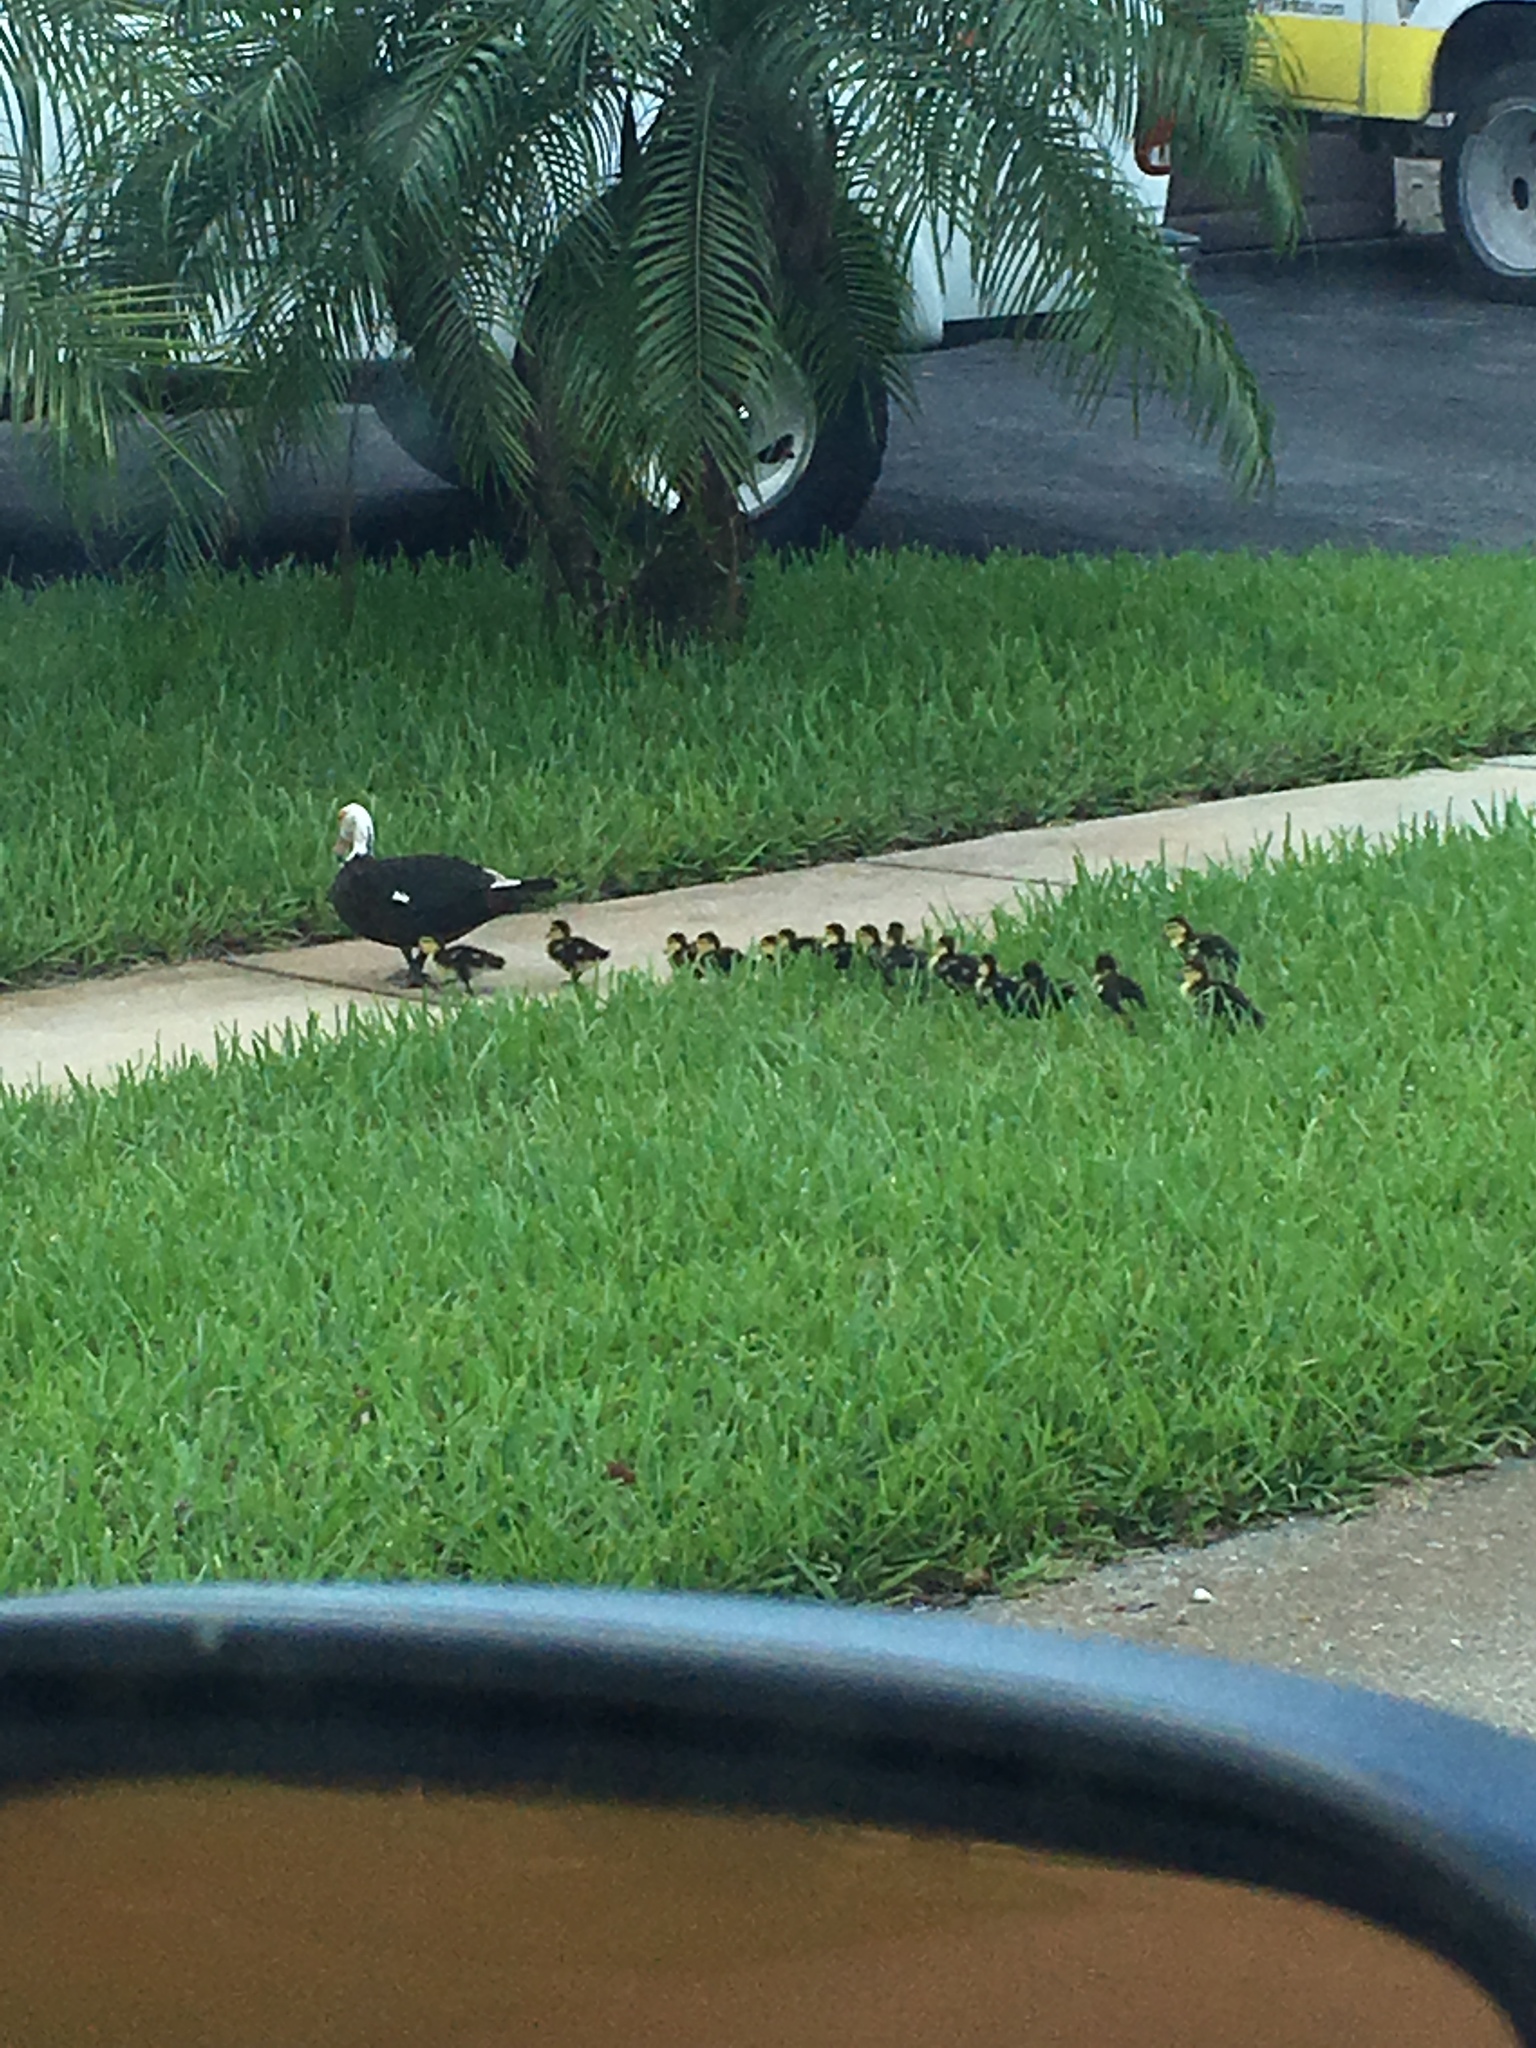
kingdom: Animalia
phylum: Chordata
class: Aves
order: Anseriformes
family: Anatidae
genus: Cairina
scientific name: Cairina moschata
